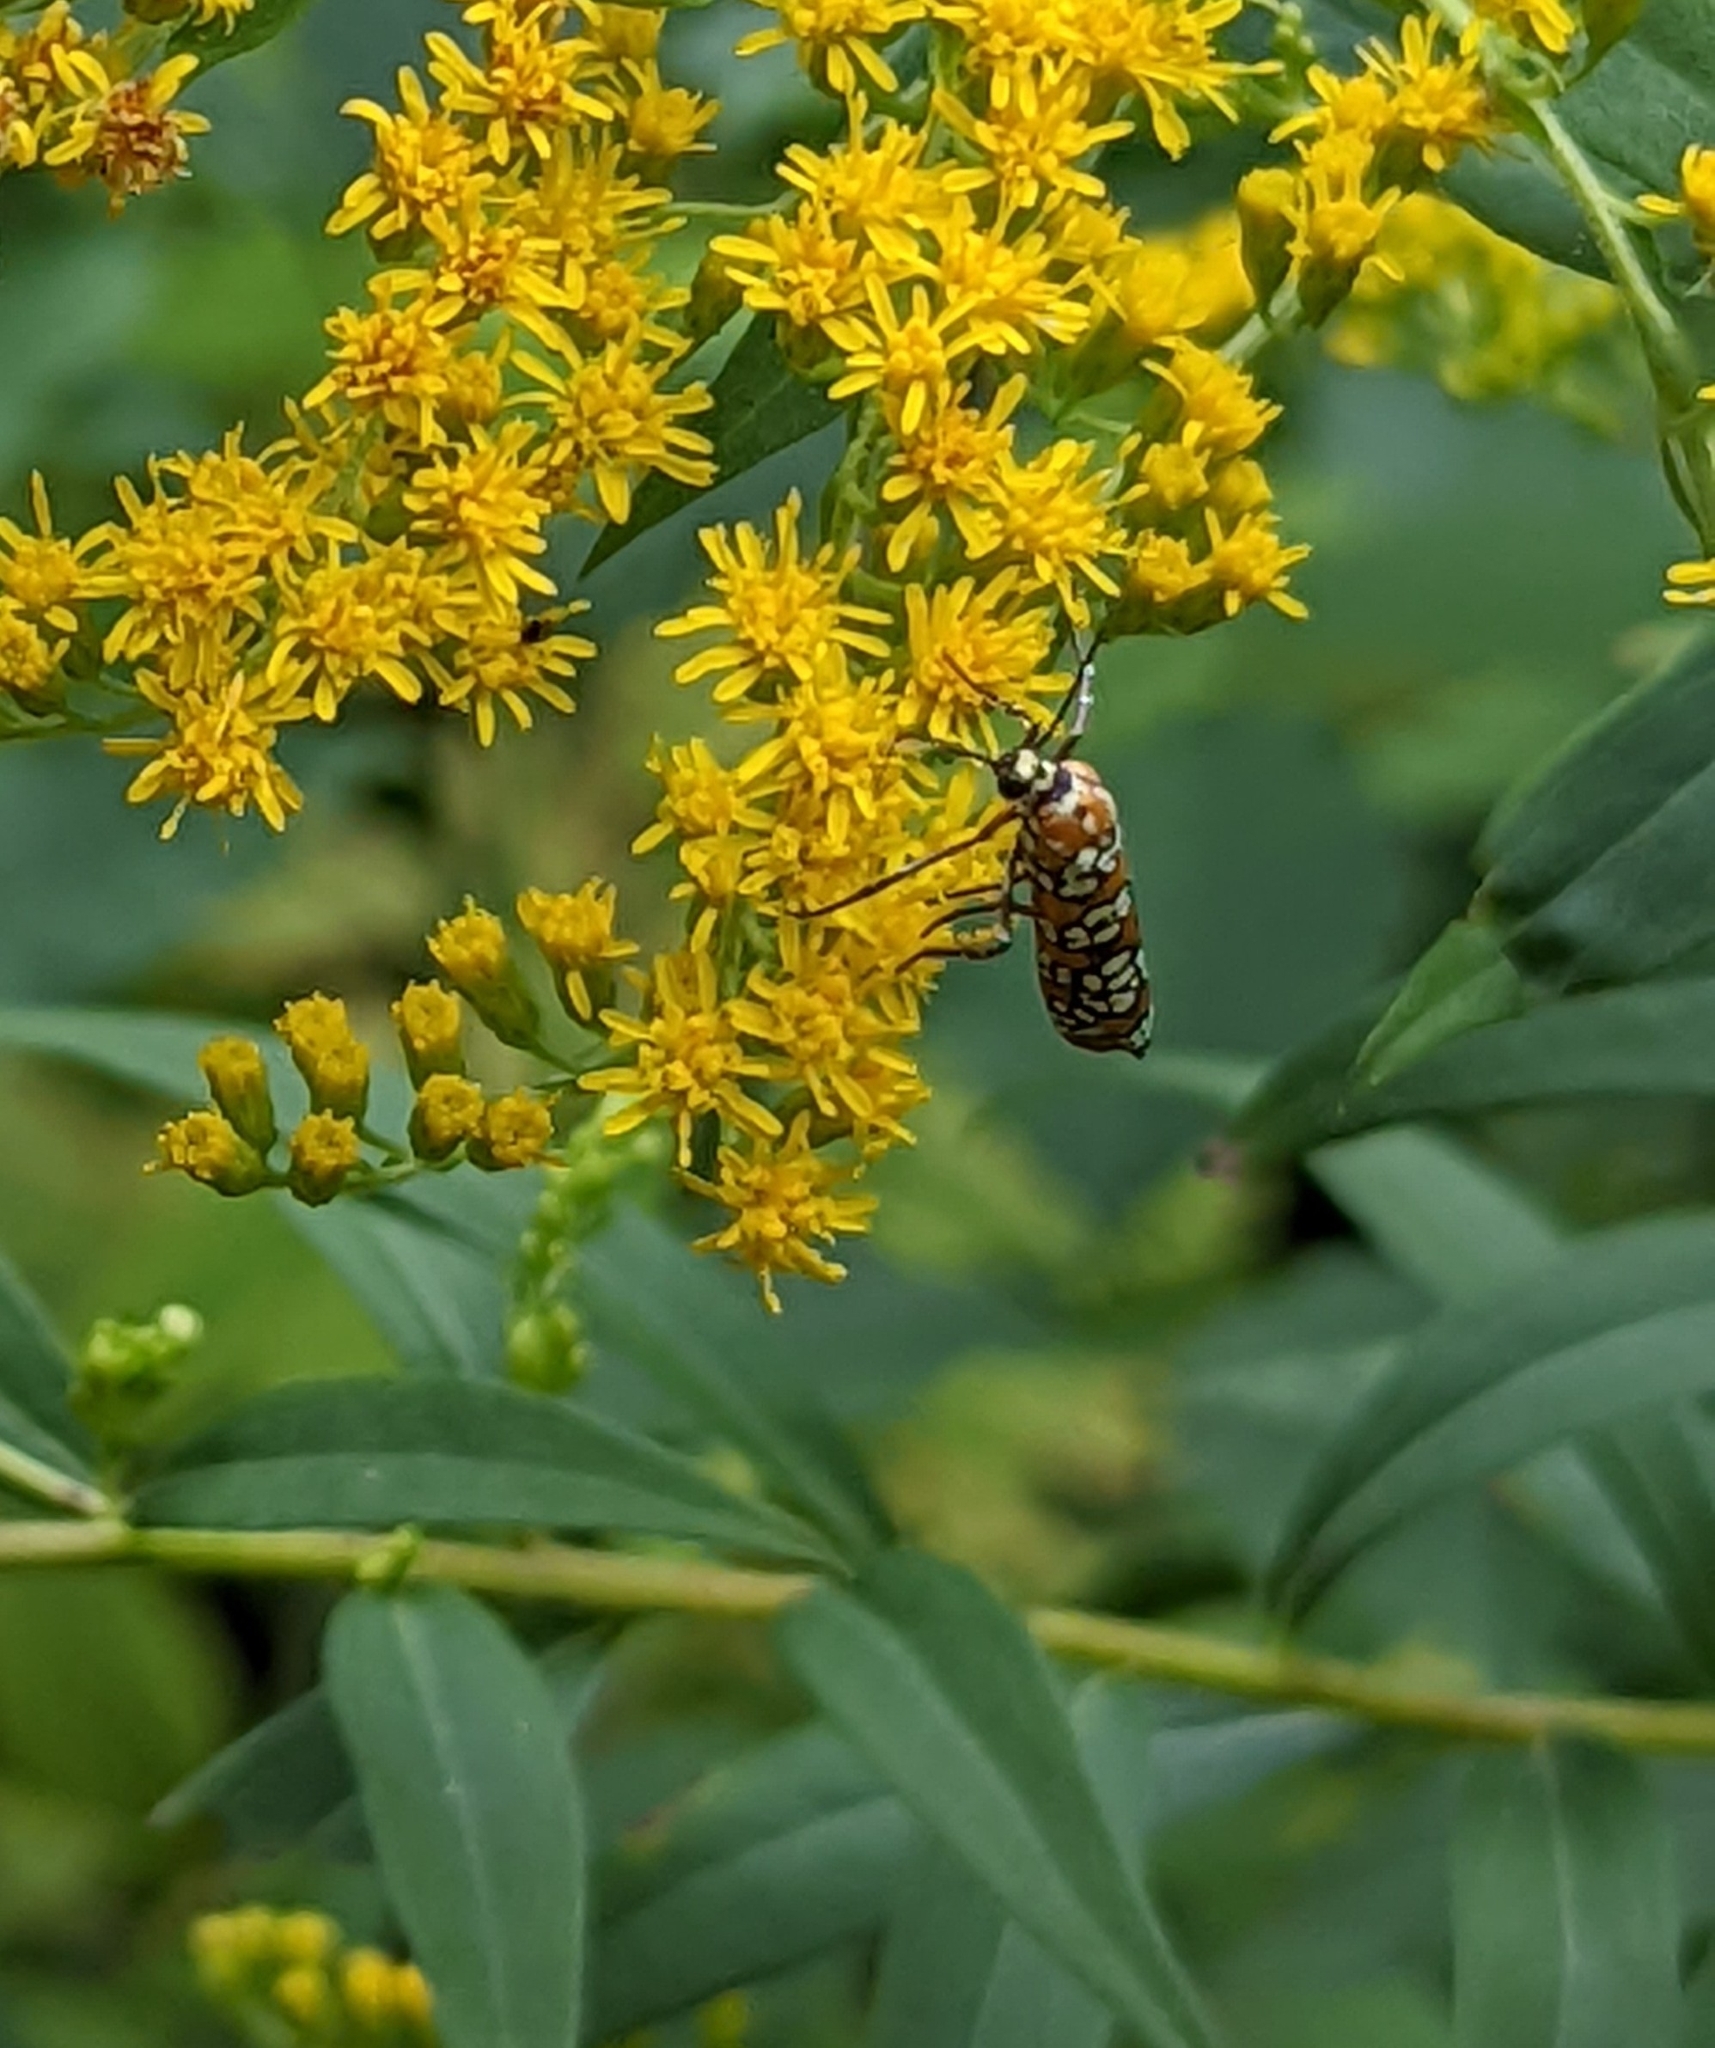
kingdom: Animalia
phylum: Arthropoda
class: Insecta
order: Lepidoptera
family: Attevidae
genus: Atteva
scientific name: Atteva punctella
